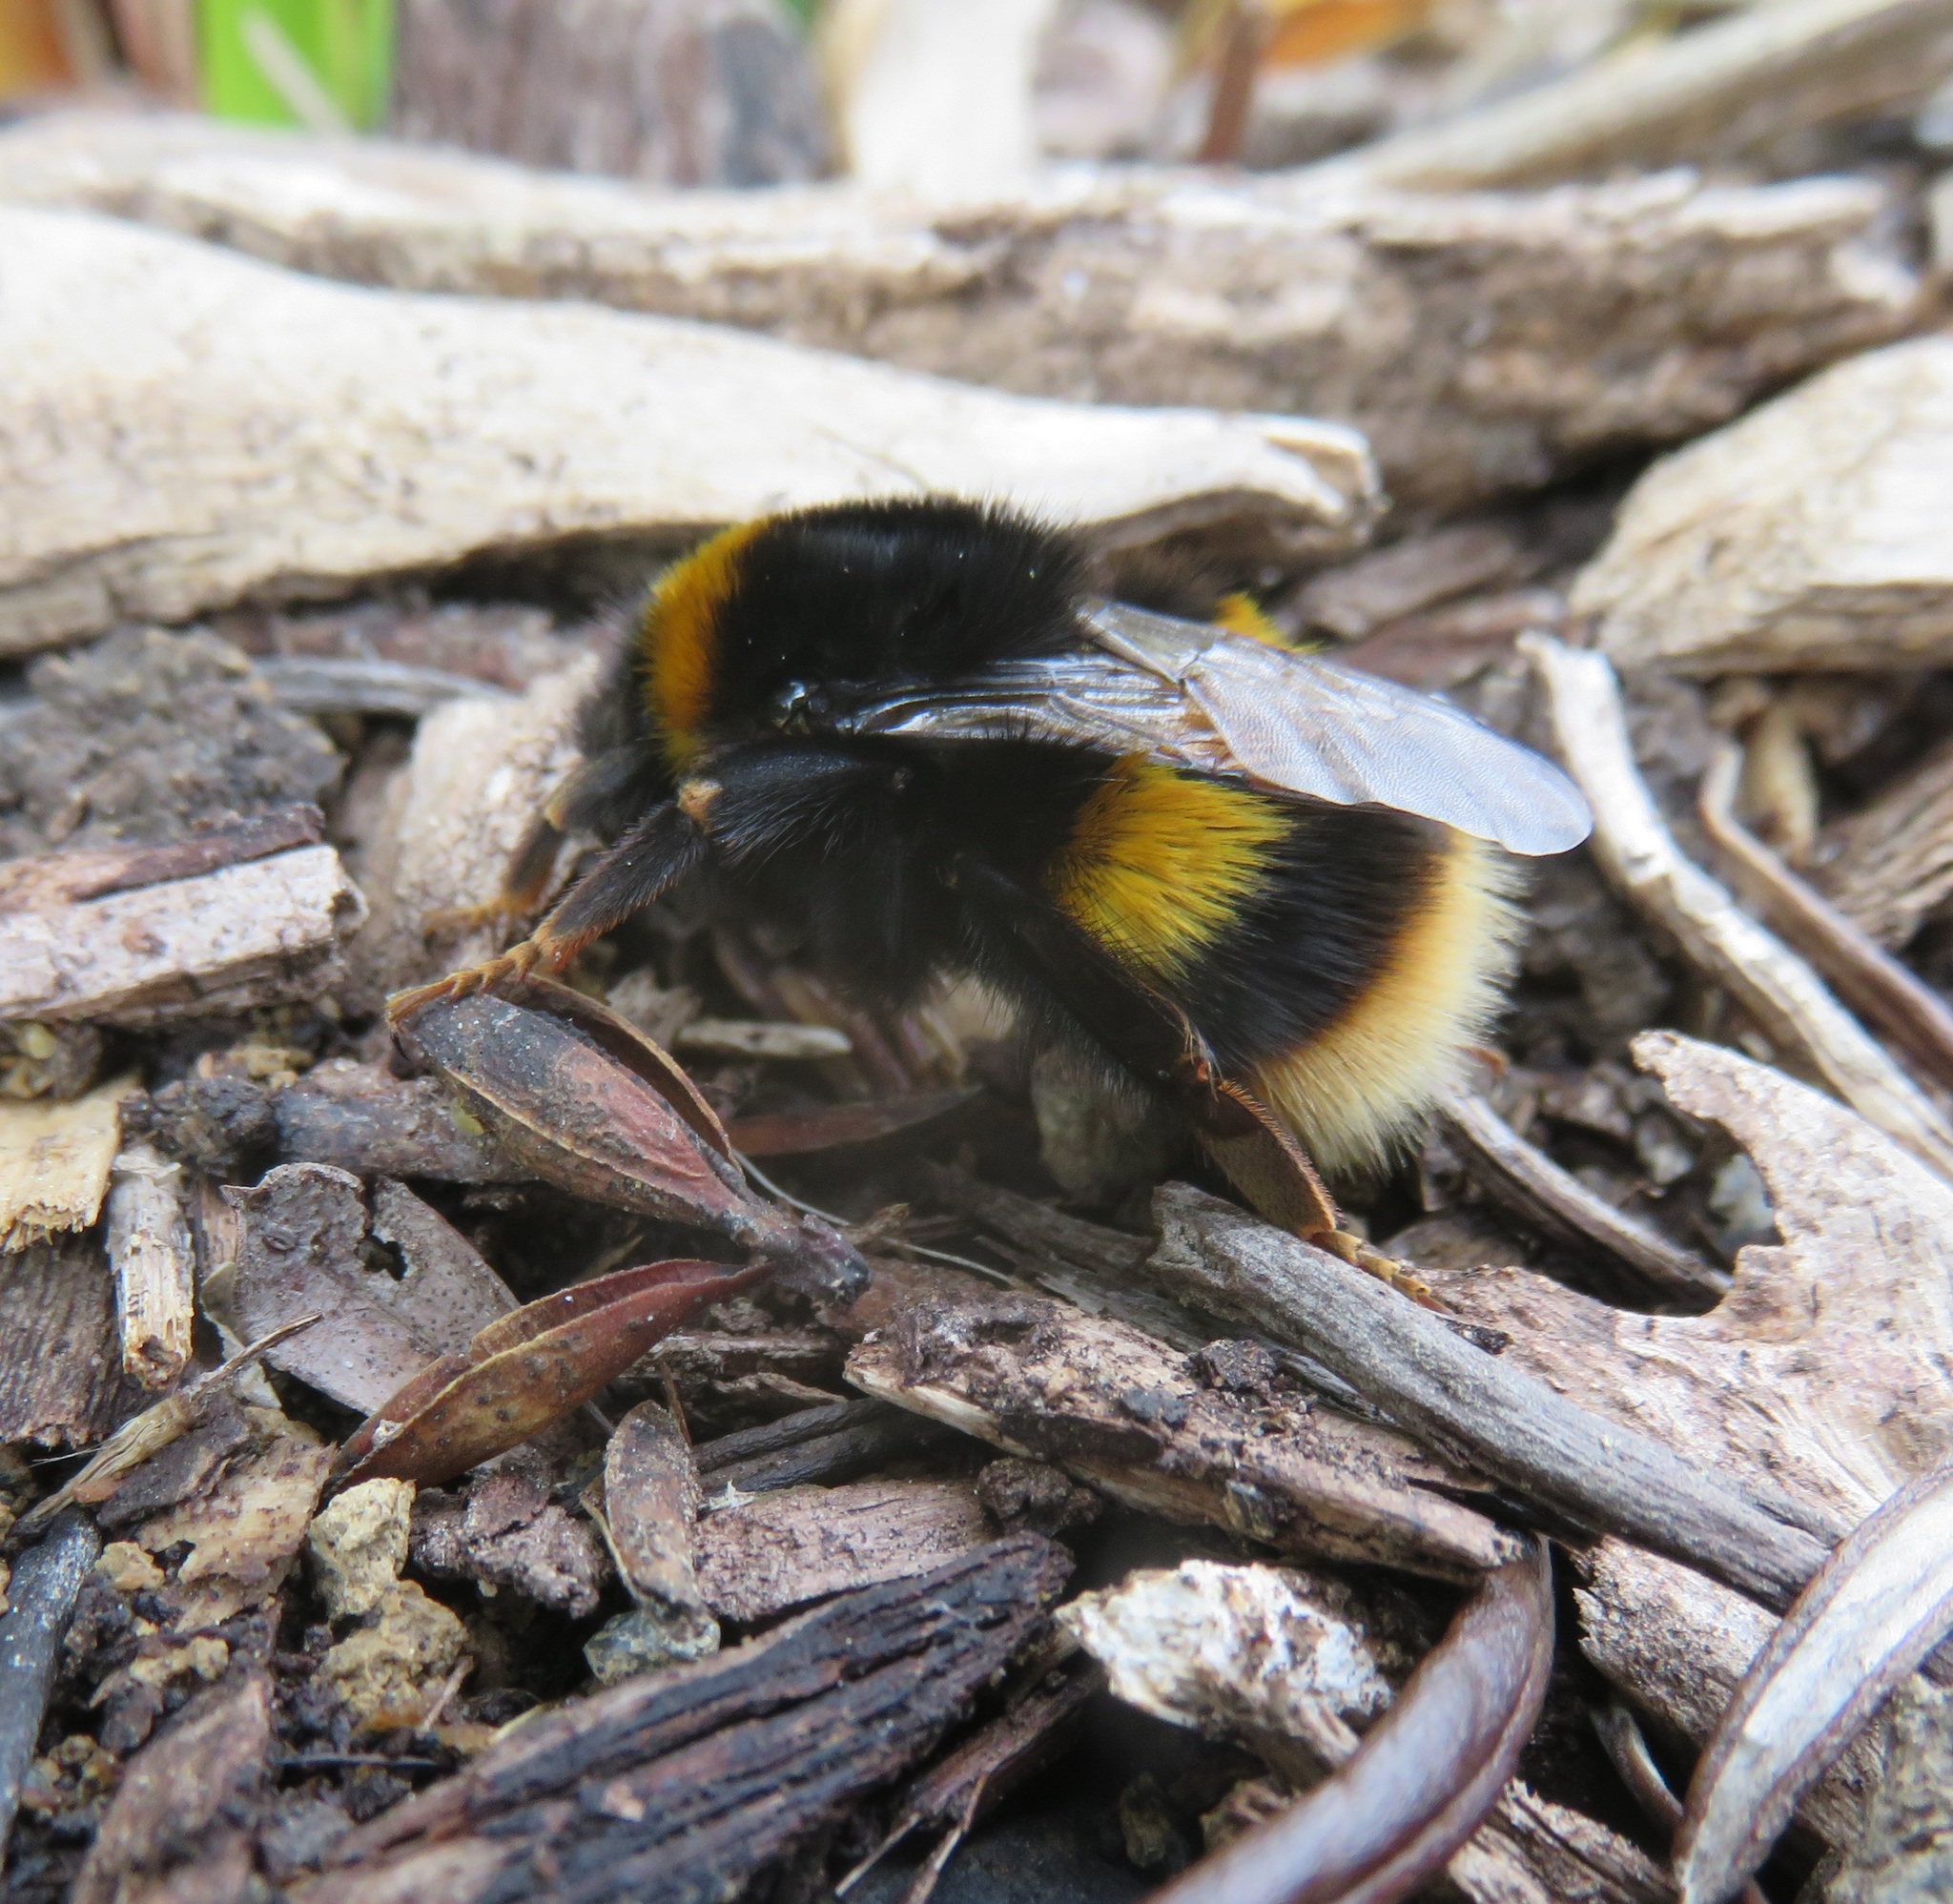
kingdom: Animalia
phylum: Arthropoda
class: Insecta
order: Hymenoptera
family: Apidae
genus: Bombus
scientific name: Bombus terrestris
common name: Buff-tailed bumblebee
